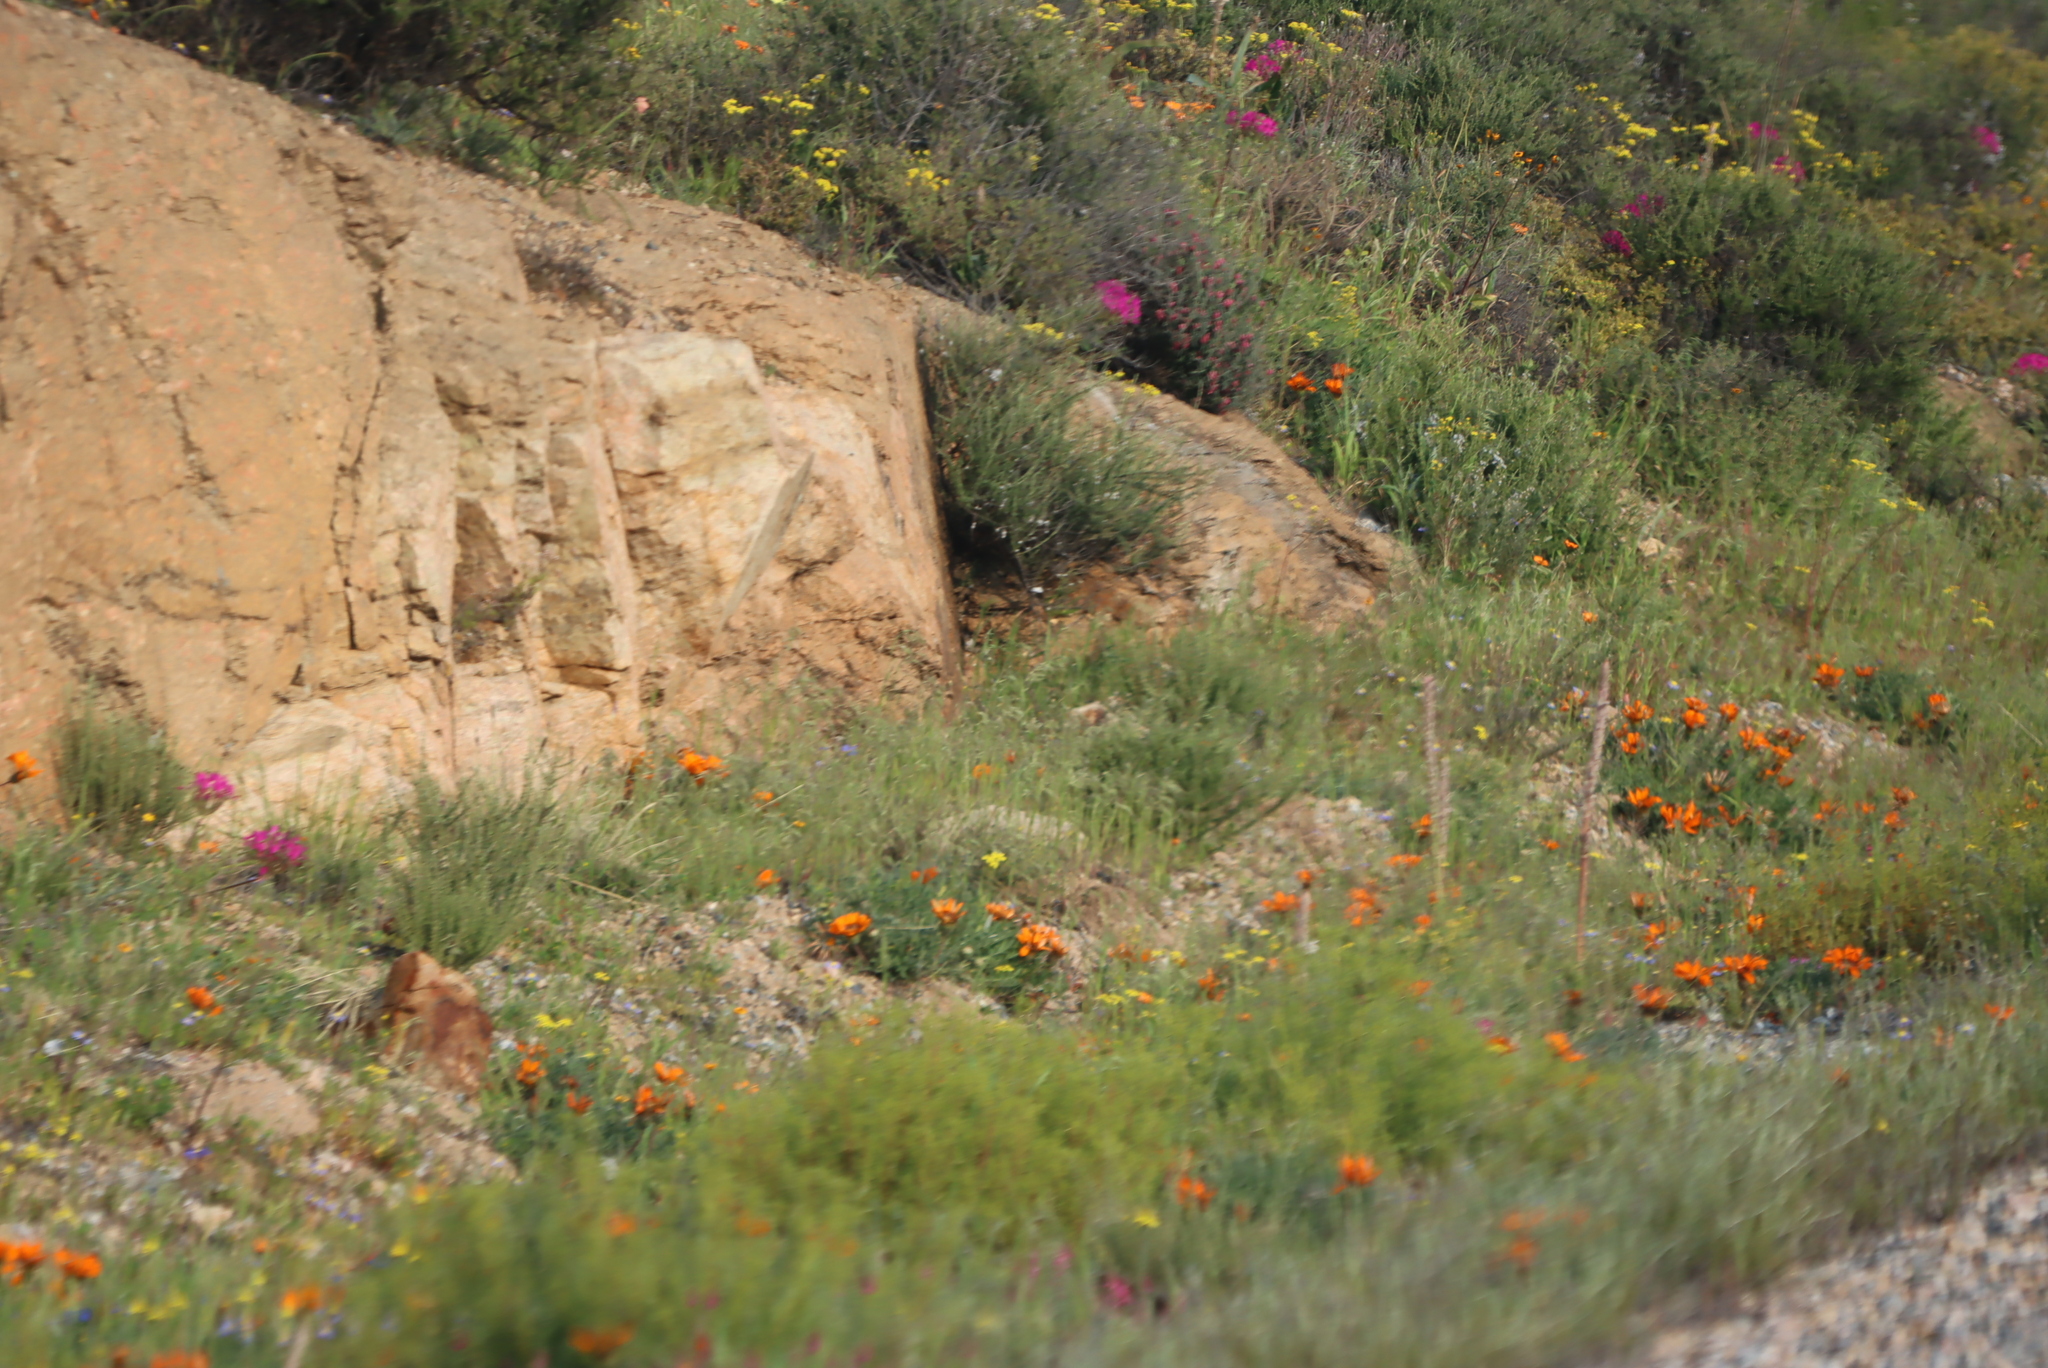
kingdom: Plantae
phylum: Tracheophyta
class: Magnoliopsida
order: Geraniales
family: Geraniaceae
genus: Pelargonium
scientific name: Pelargonium incrassatum
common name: Namaqualand beauty
